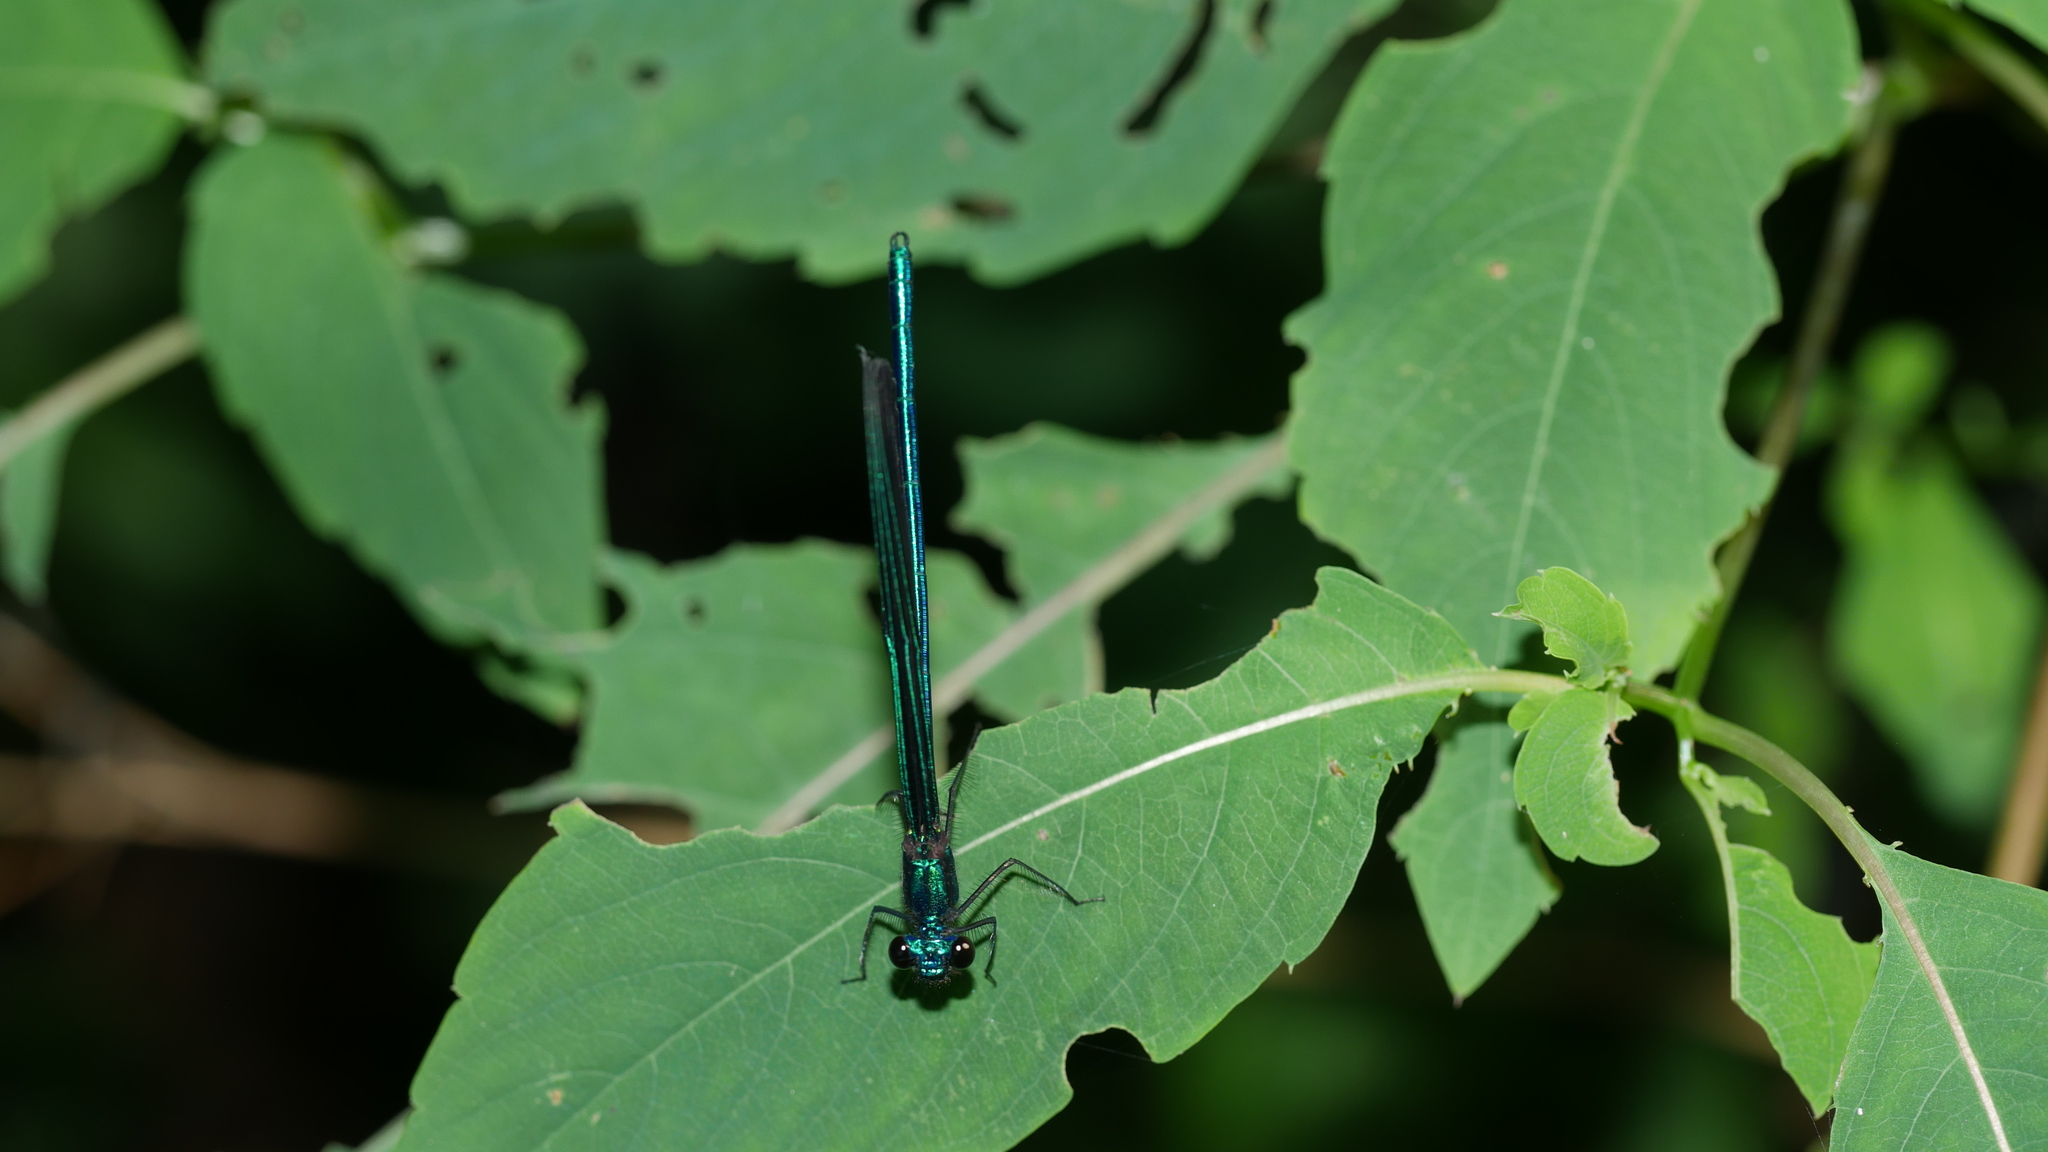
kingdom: Animalia
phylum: Arthropoda
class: Insecta
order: Odonata
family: Calopterygidae
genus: Calopteryx
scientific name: Calopteryx maculata
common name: Ebony jewelwing
